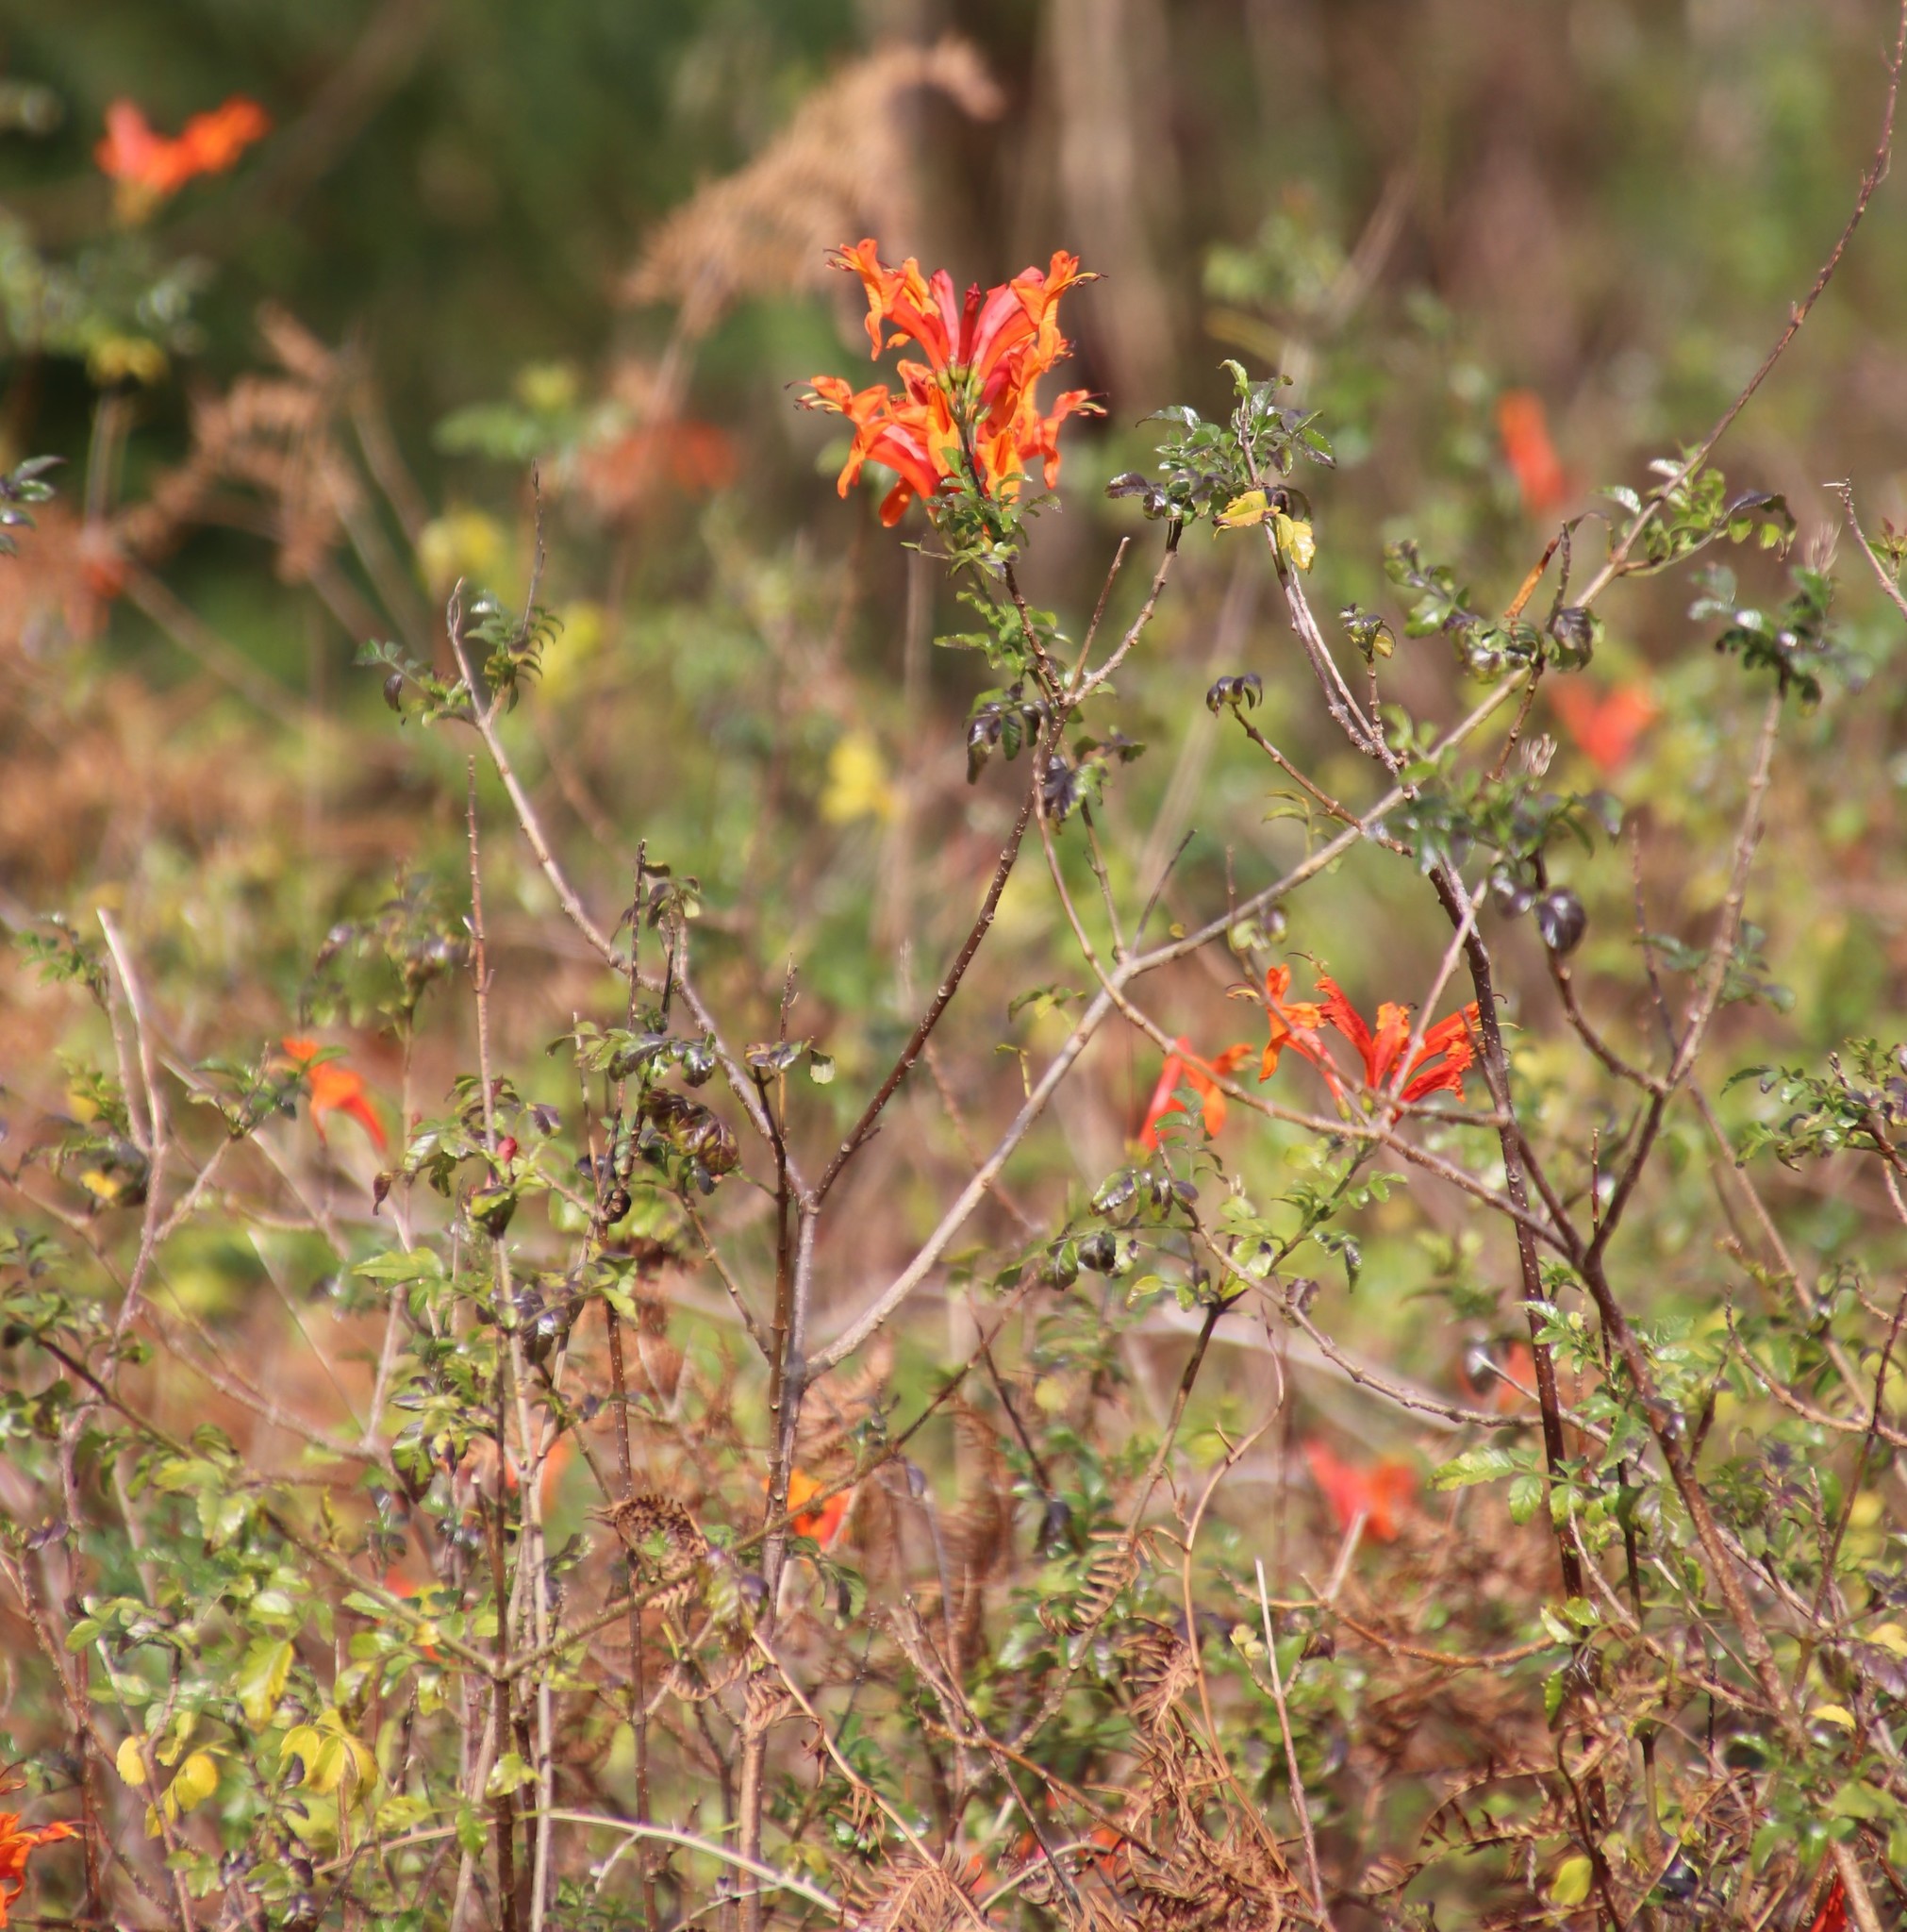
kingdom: Plantae
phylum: Tracheophyta
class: Magnoliopsida
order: Lamiales
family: Bignoniaceae
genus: Tecomaria
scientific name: Tecomaria capensis
